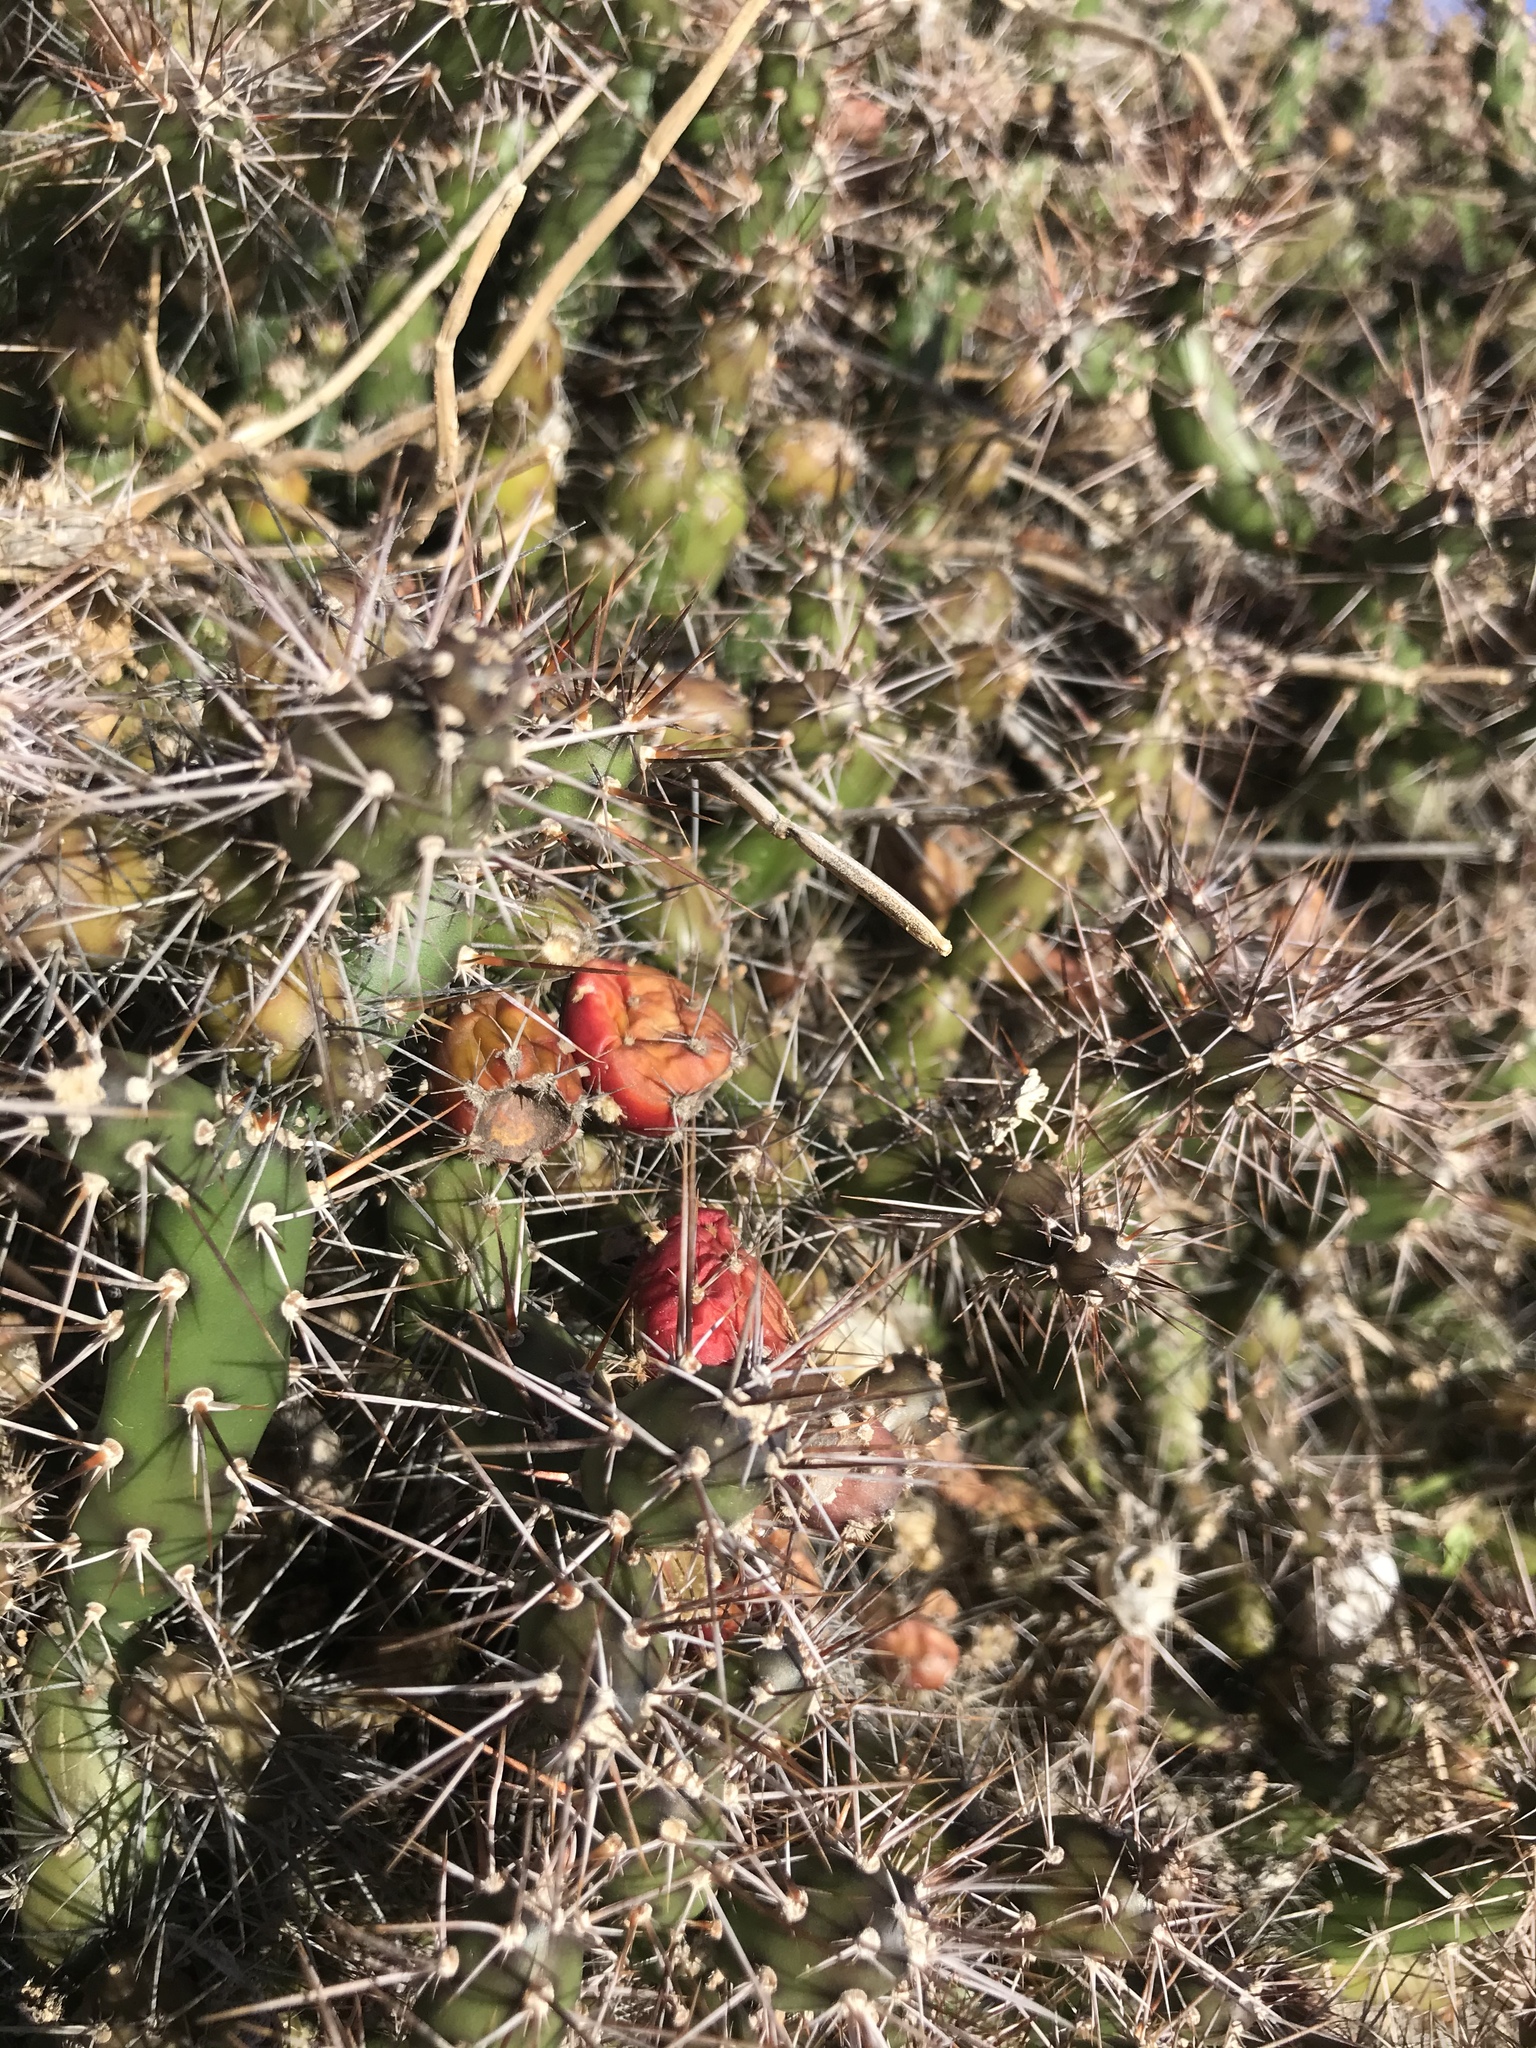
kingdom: Plantae
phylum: Tracheophyta
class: Magnoliopsida
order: Caryophyllales
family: Cactaceae
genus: Opuntia
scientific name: Opuntia aurantiaca
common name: Jointed pricklypear
